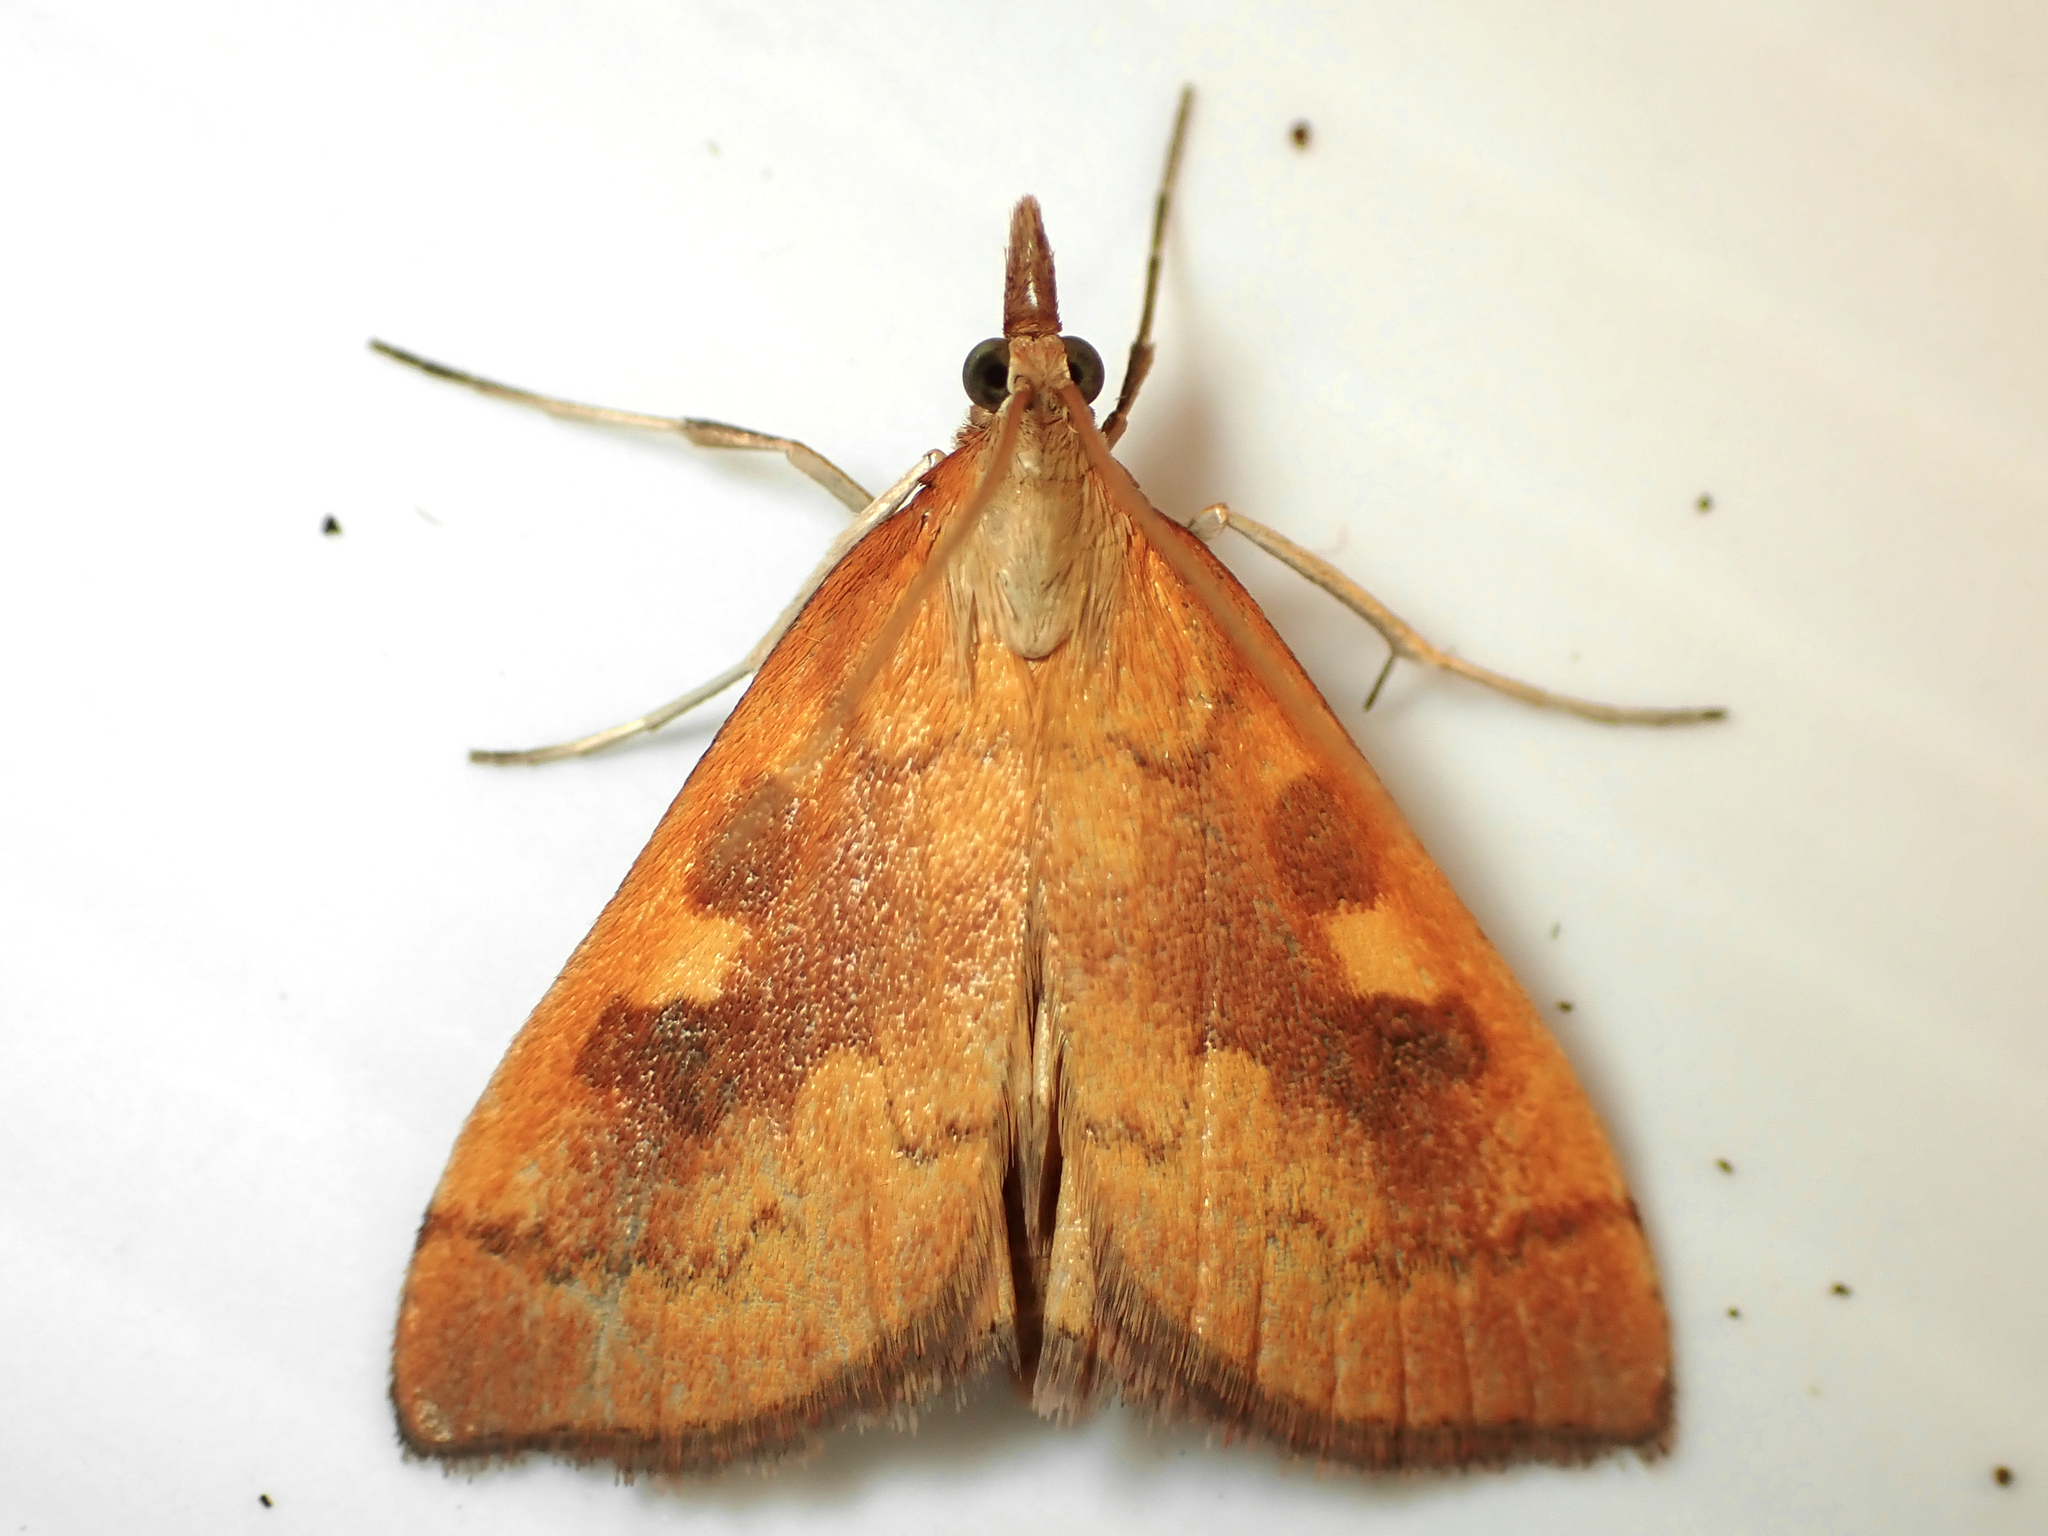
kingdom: Animalia
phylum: Arthropoda
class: Insecta
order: Lepidoptera
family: Crambidae
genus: Udea
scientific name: Udea Mnesictena flavidalis
